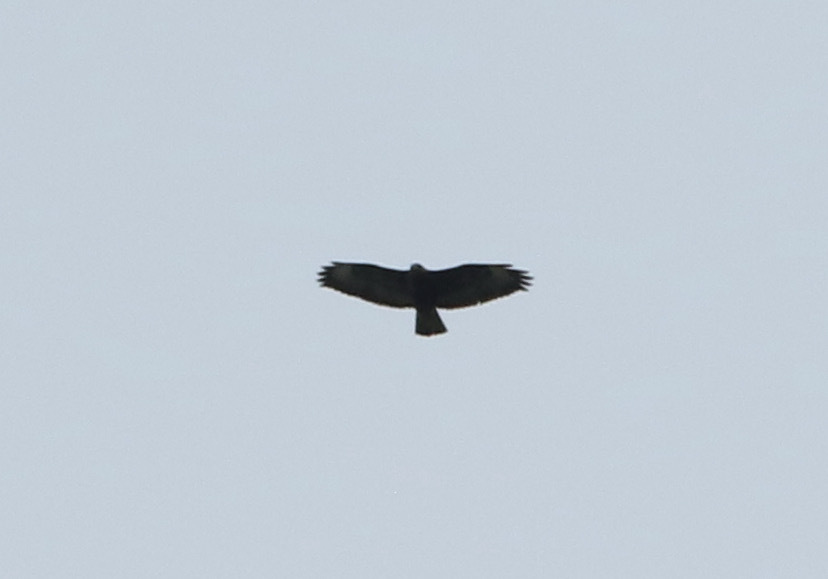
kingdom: Animalia
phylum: Chordata
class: Aves
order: Accipitriformes
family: Accipitridae
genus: Buteo
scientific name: Buteo buteo
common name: Common buzzard
